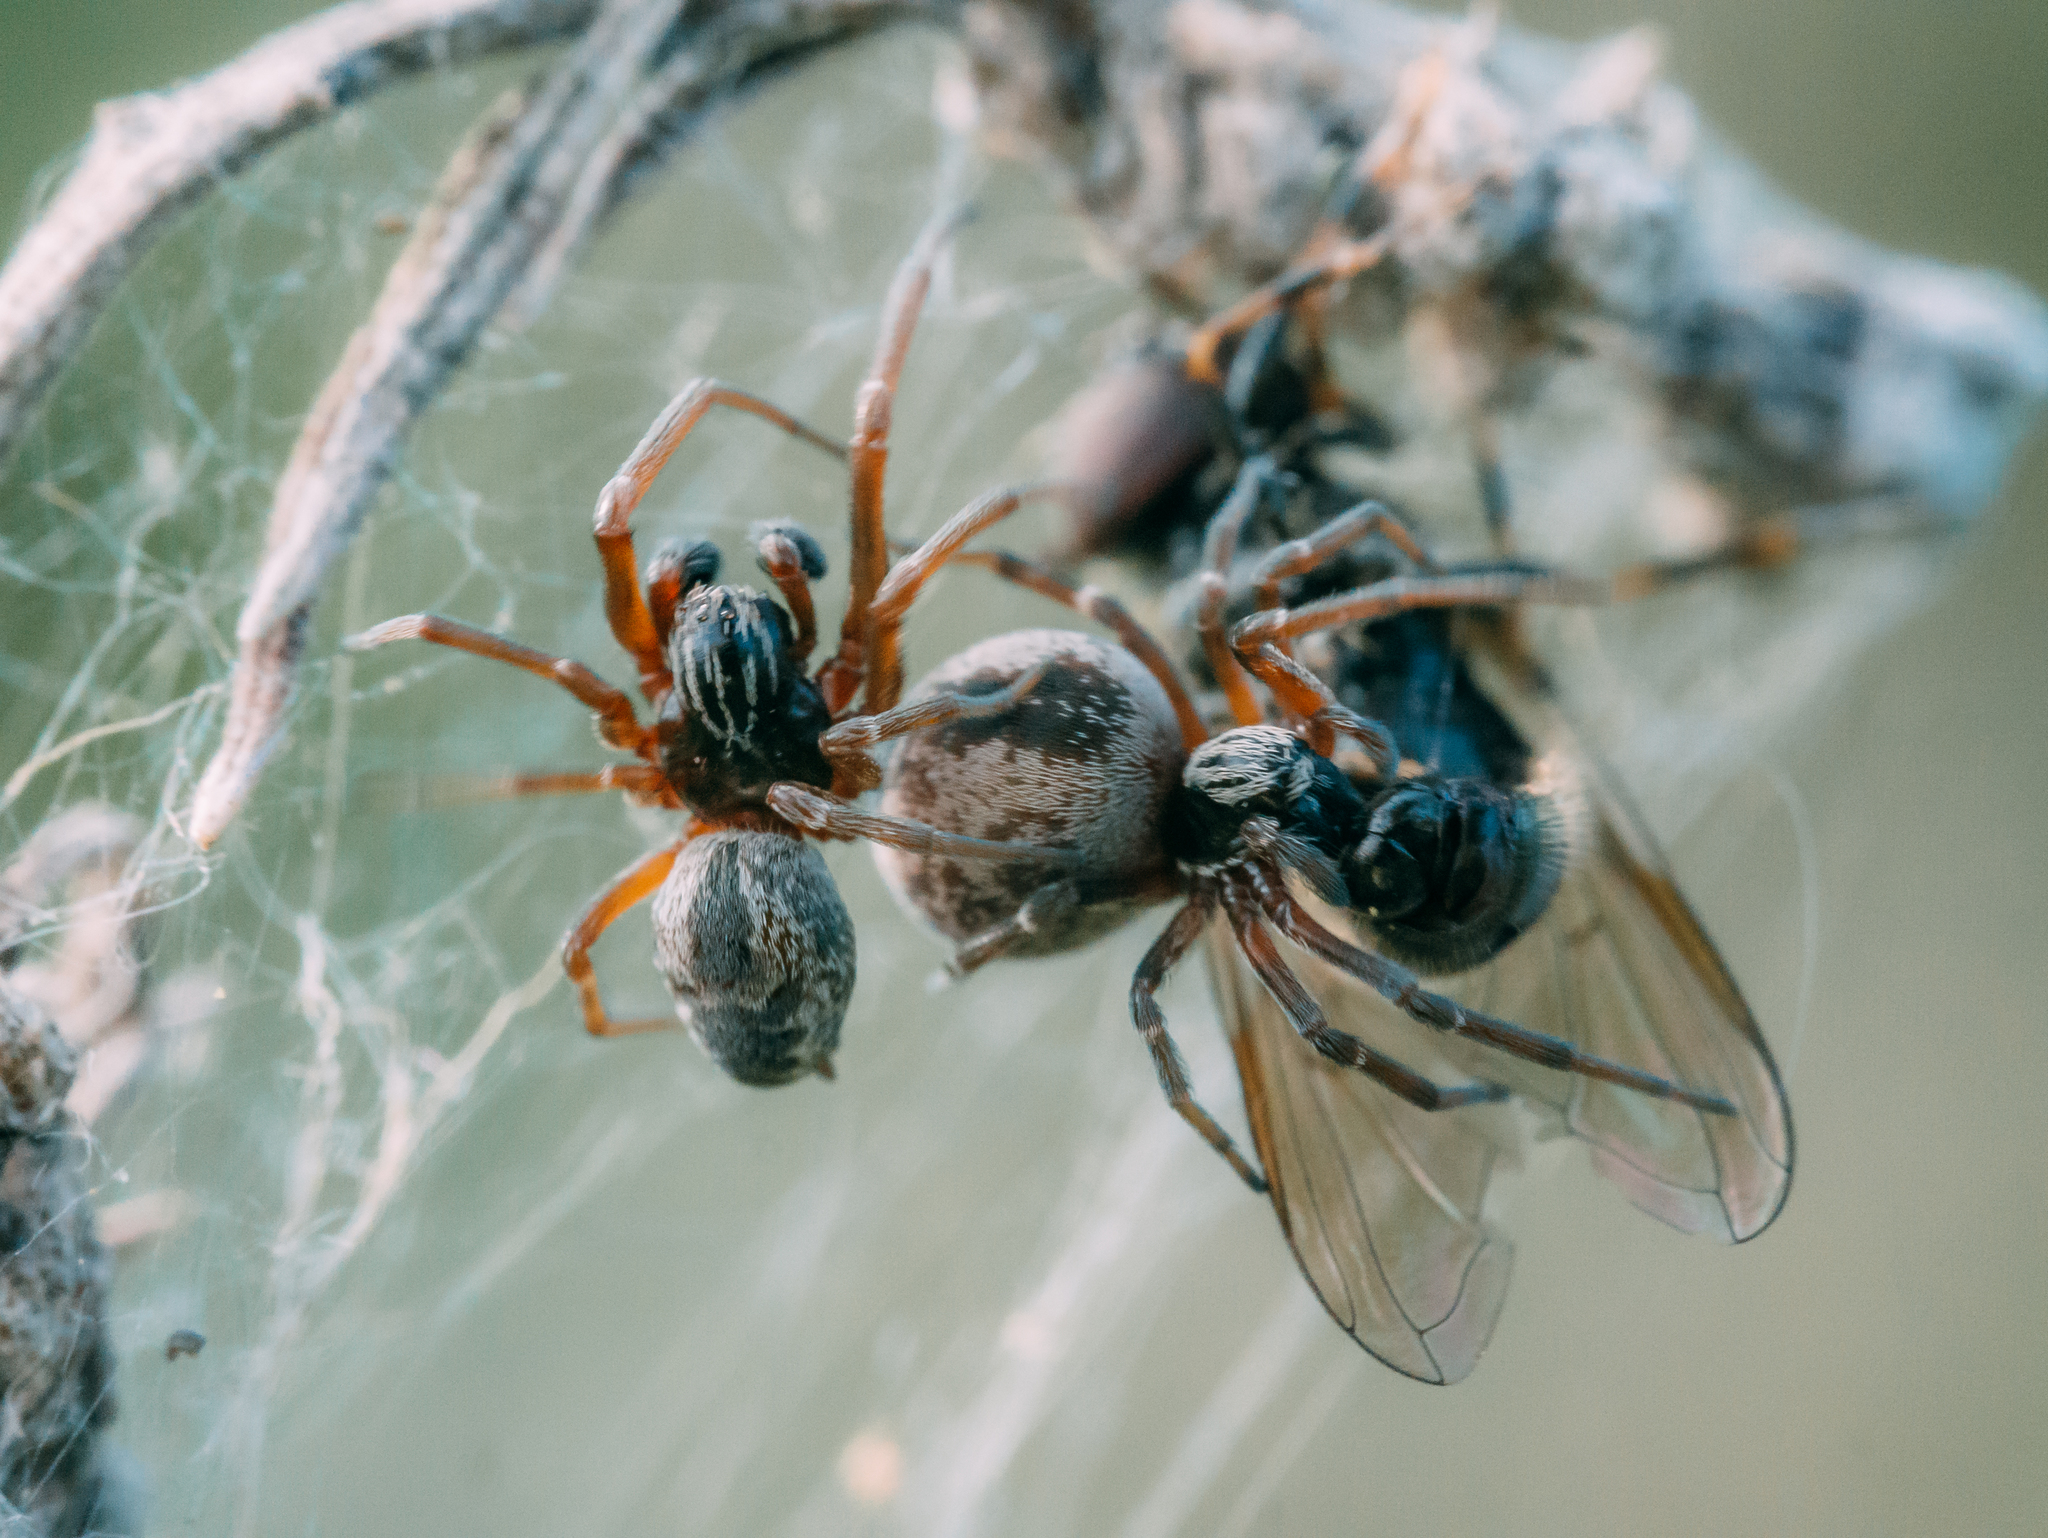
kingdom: Animalia
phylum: Arthropoda
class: Arachnida
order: Araneae
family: Dictynidae
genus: Dictyna
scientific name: Dictyna arundinacea
